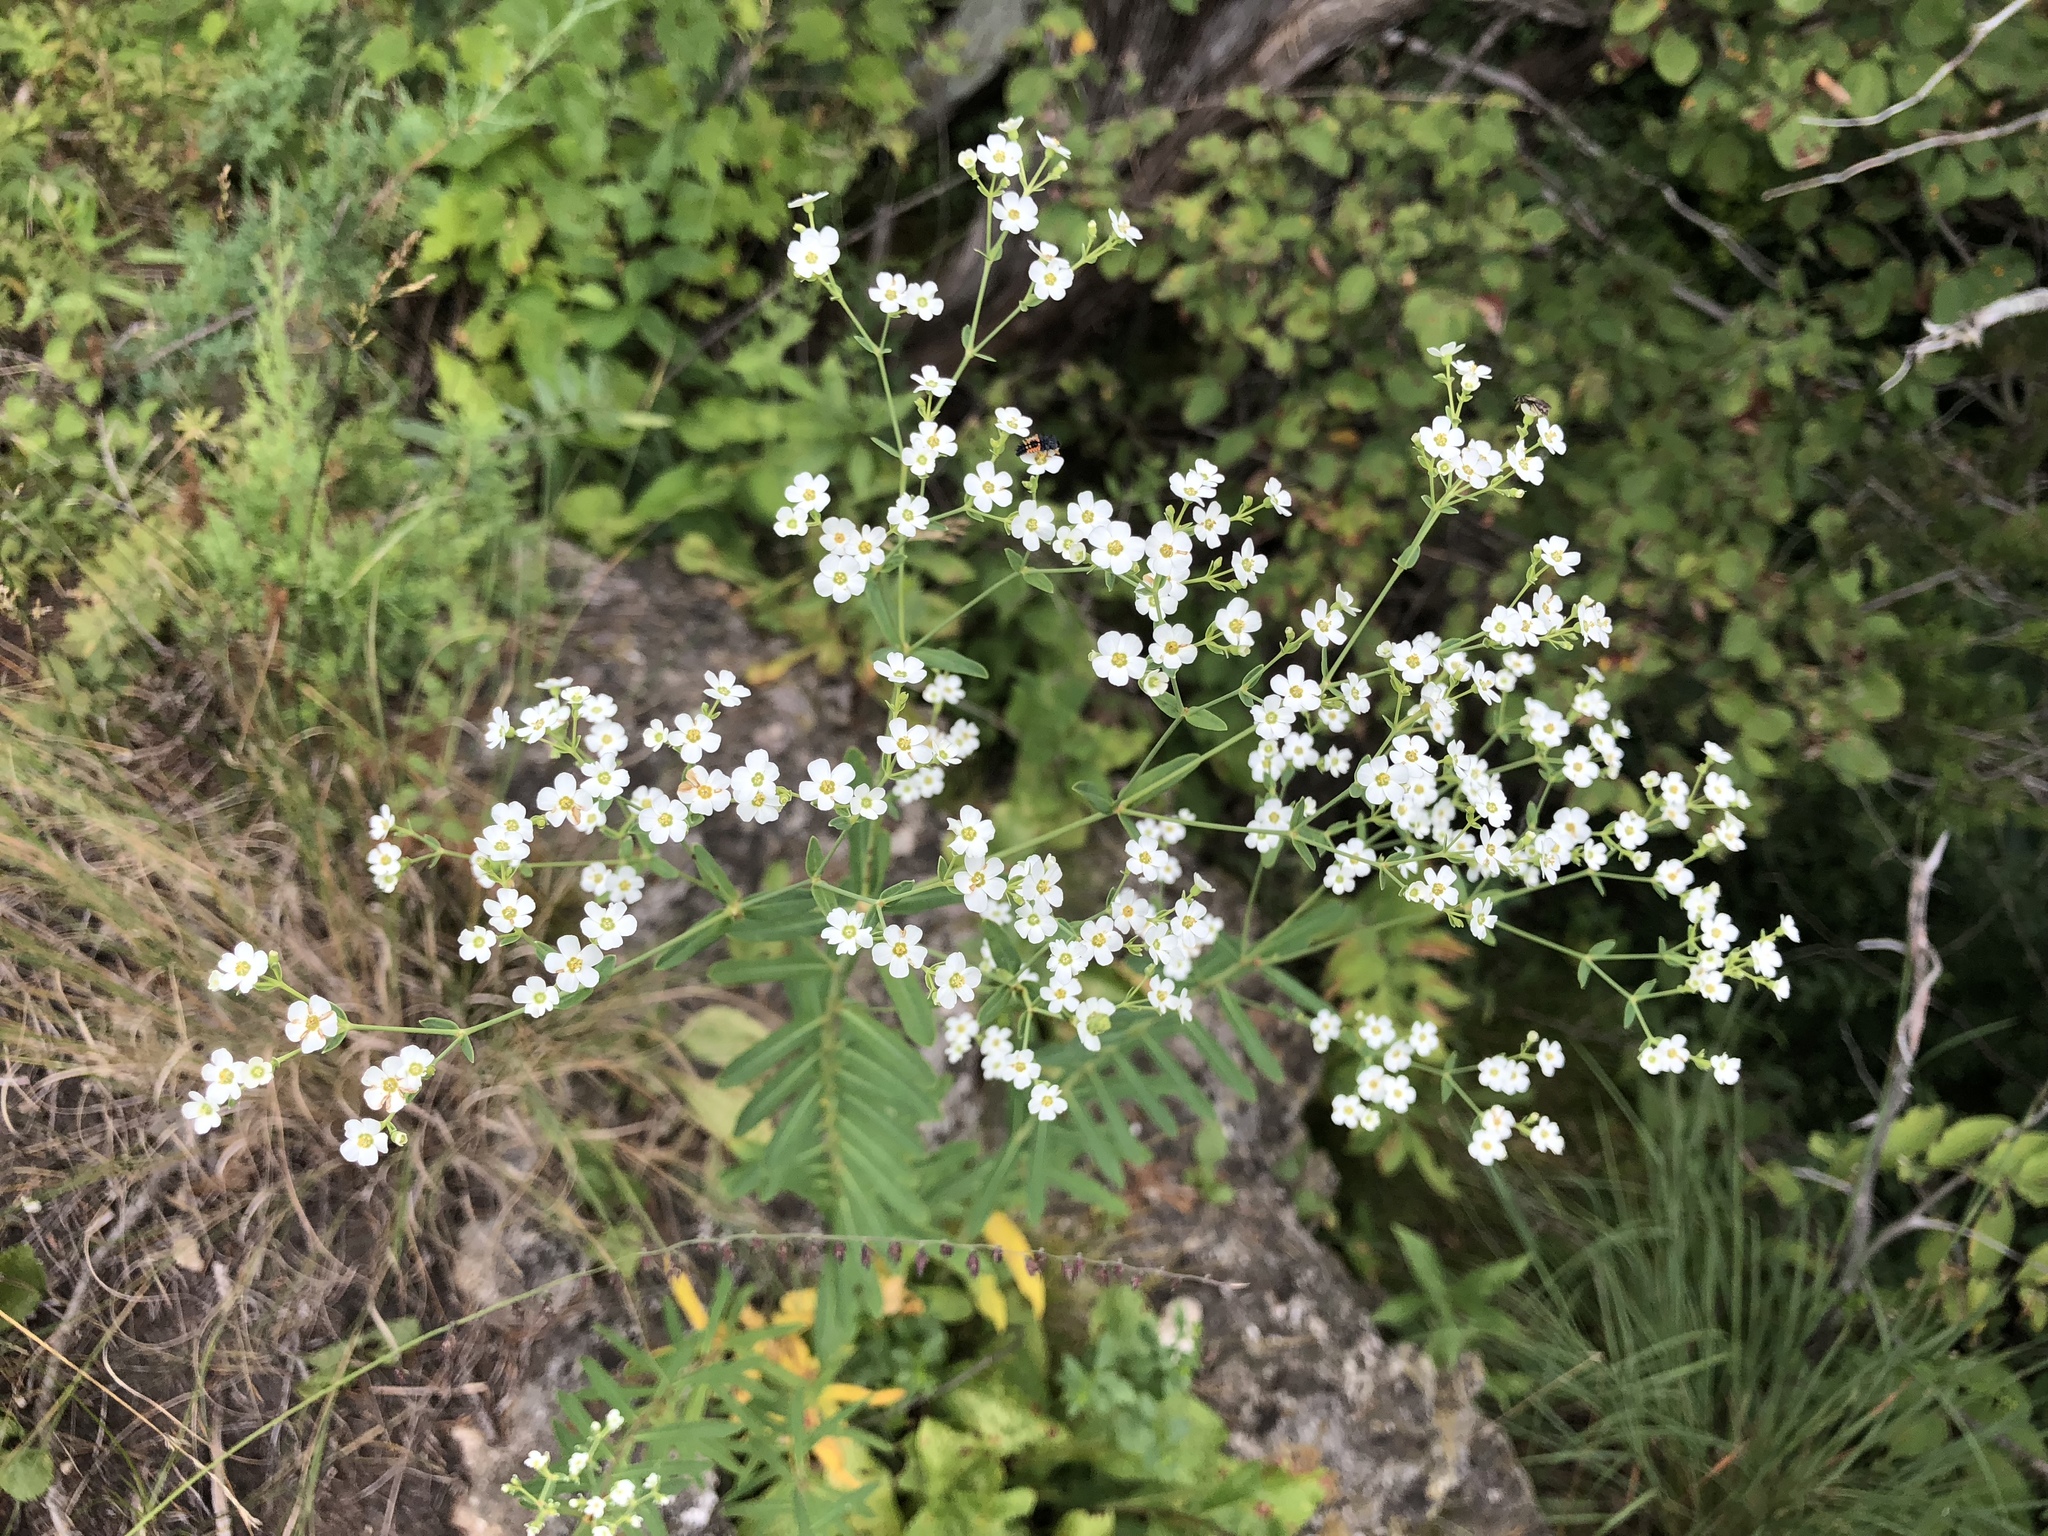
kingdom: Plantae
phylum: Tracheophyta
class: Magnoliopsida
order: Malpighiales
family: Euphorbiaceae
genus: Euphorbia
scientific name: Euphorbia corollata
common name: Flowering spurge
